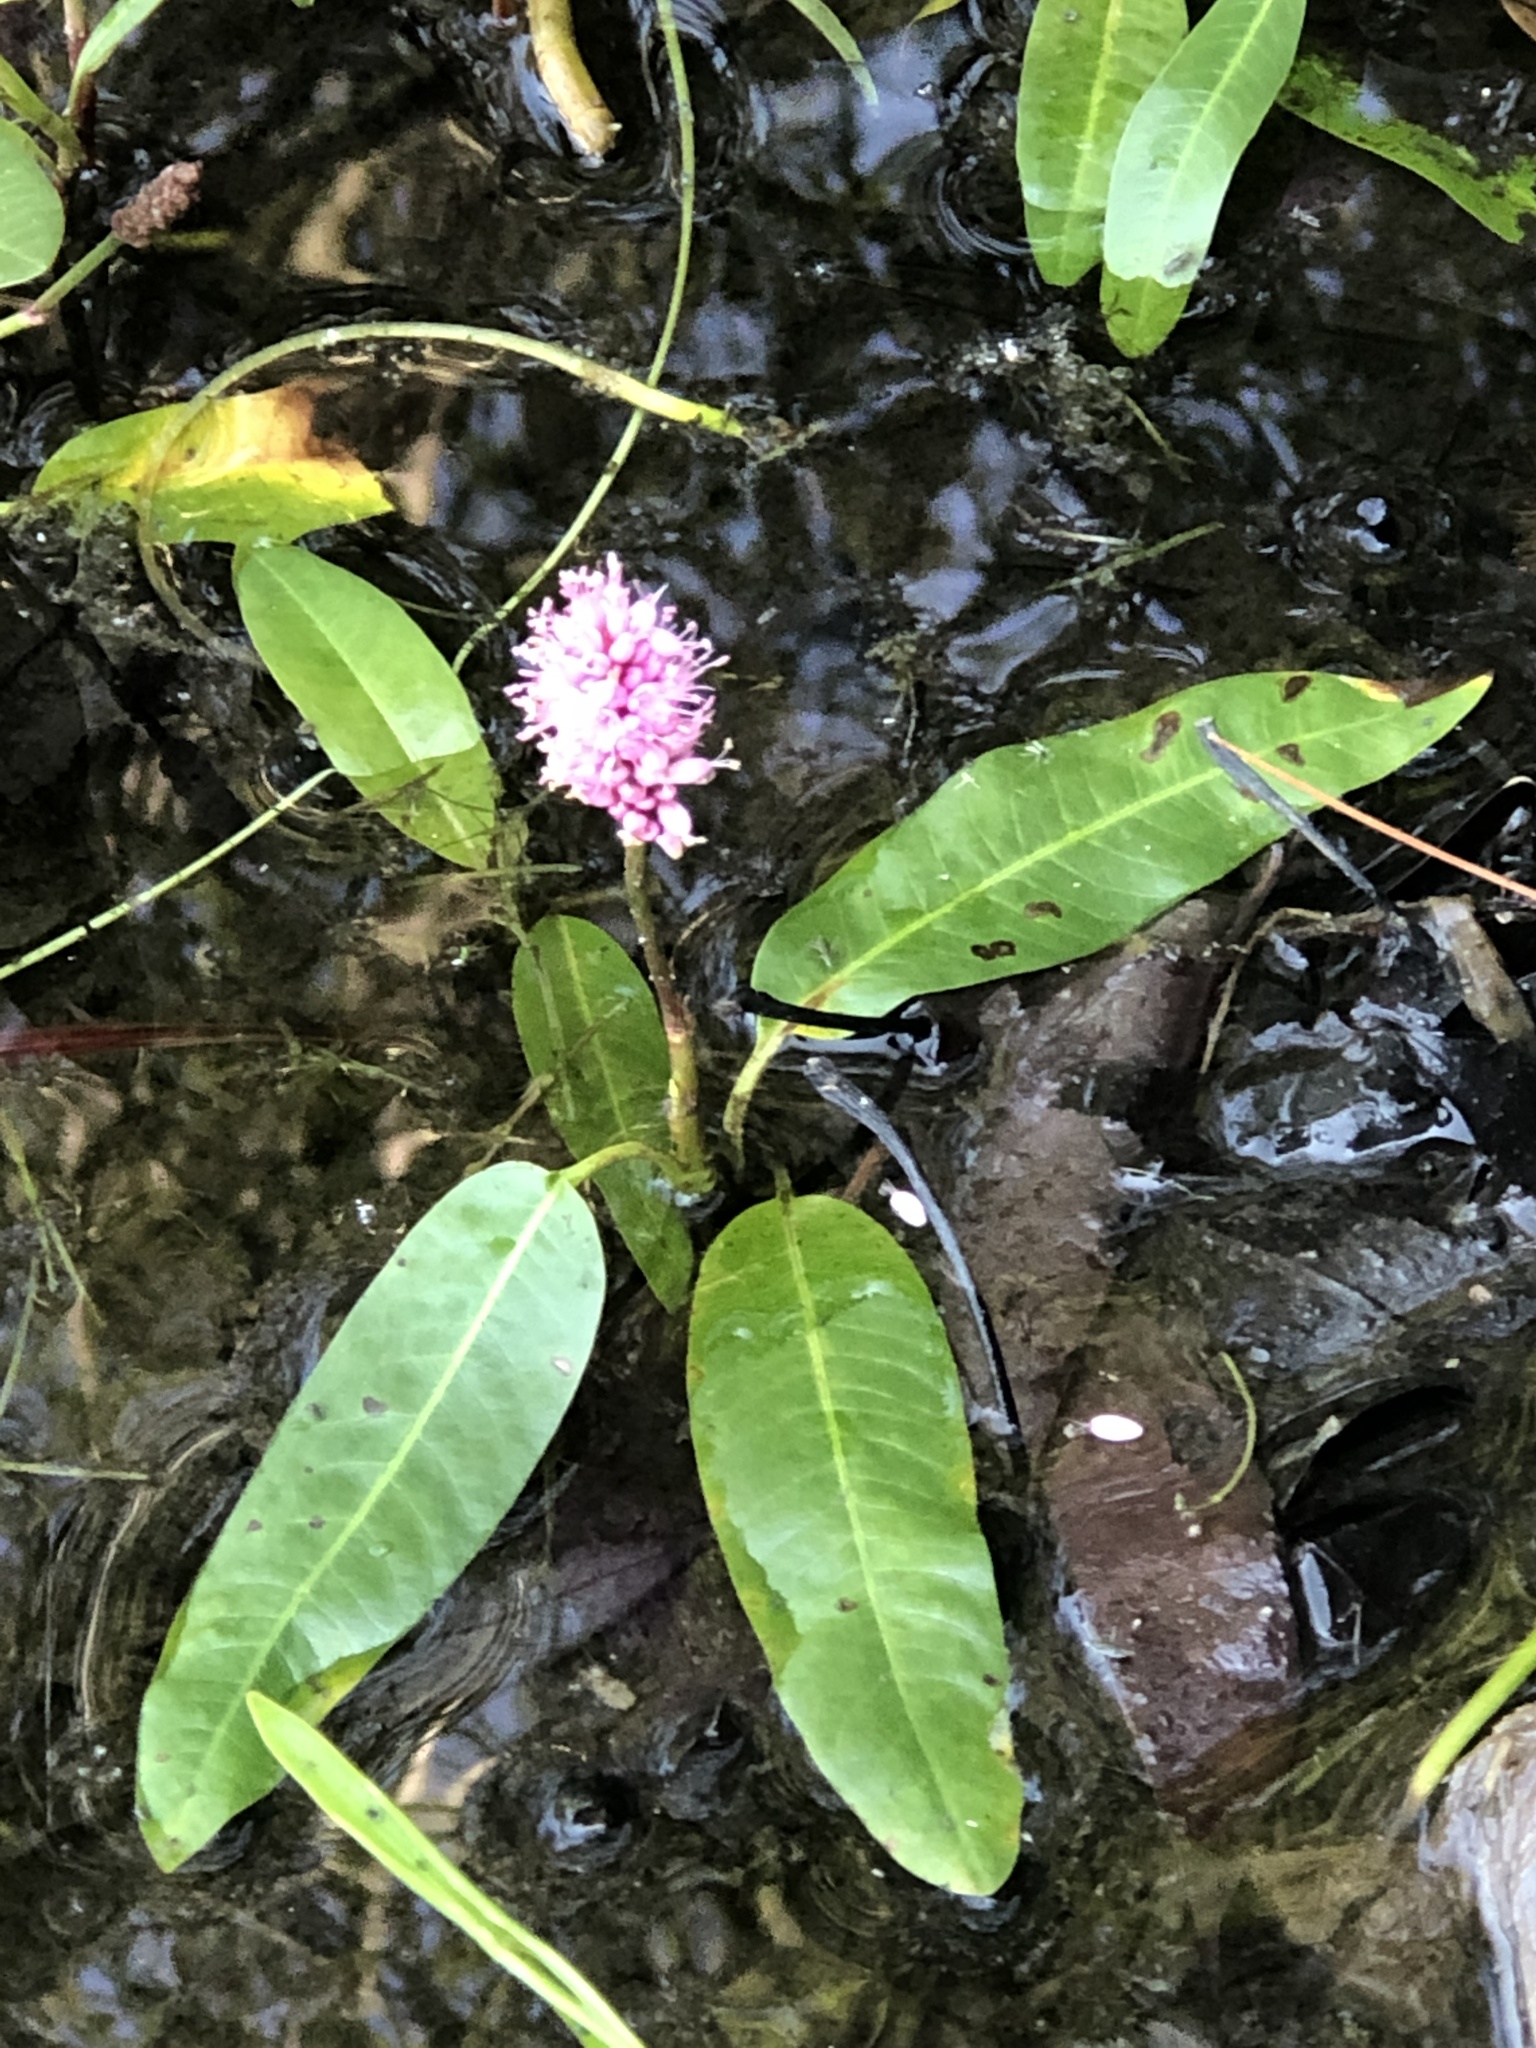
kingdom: Plantae
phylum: Tracheophyta
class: Magnoliopsida
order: Caryophyllales
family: Polygonaceae
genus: Persicaria
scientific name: Persicaria amphibia
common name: Amphibious bistort
